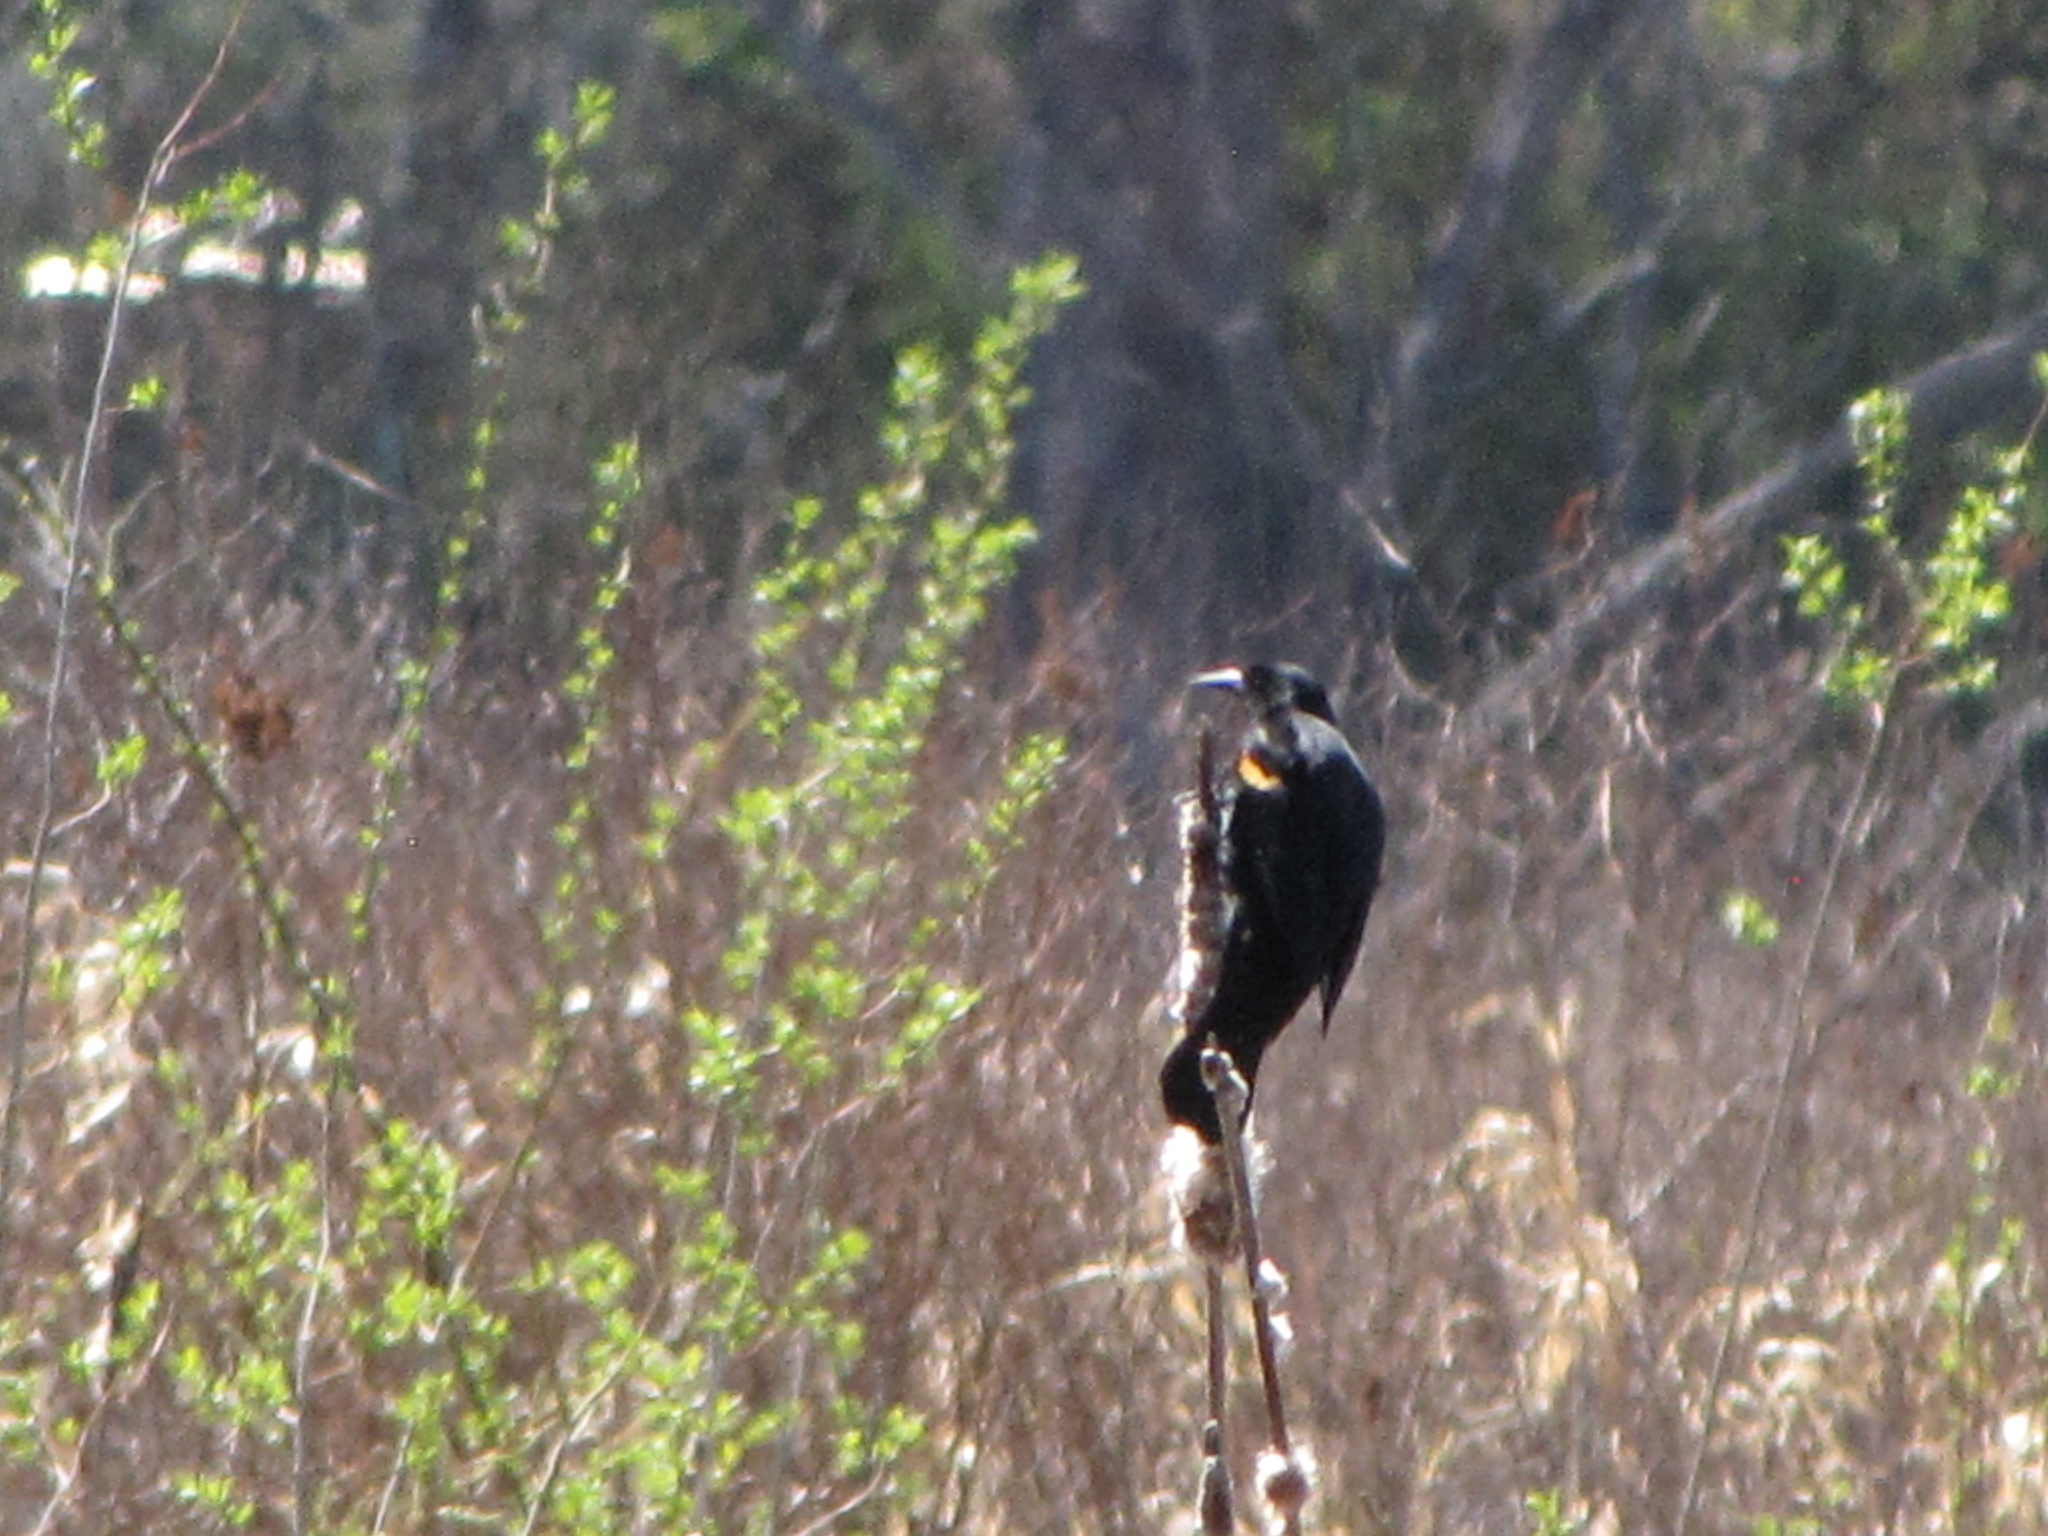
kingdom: Animalia
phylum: Chordata
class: Aves
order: Passeriformes
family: Icteridae
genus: Agelaius
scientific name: Agelaius phoeniceus
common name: Red-winged blackbird
